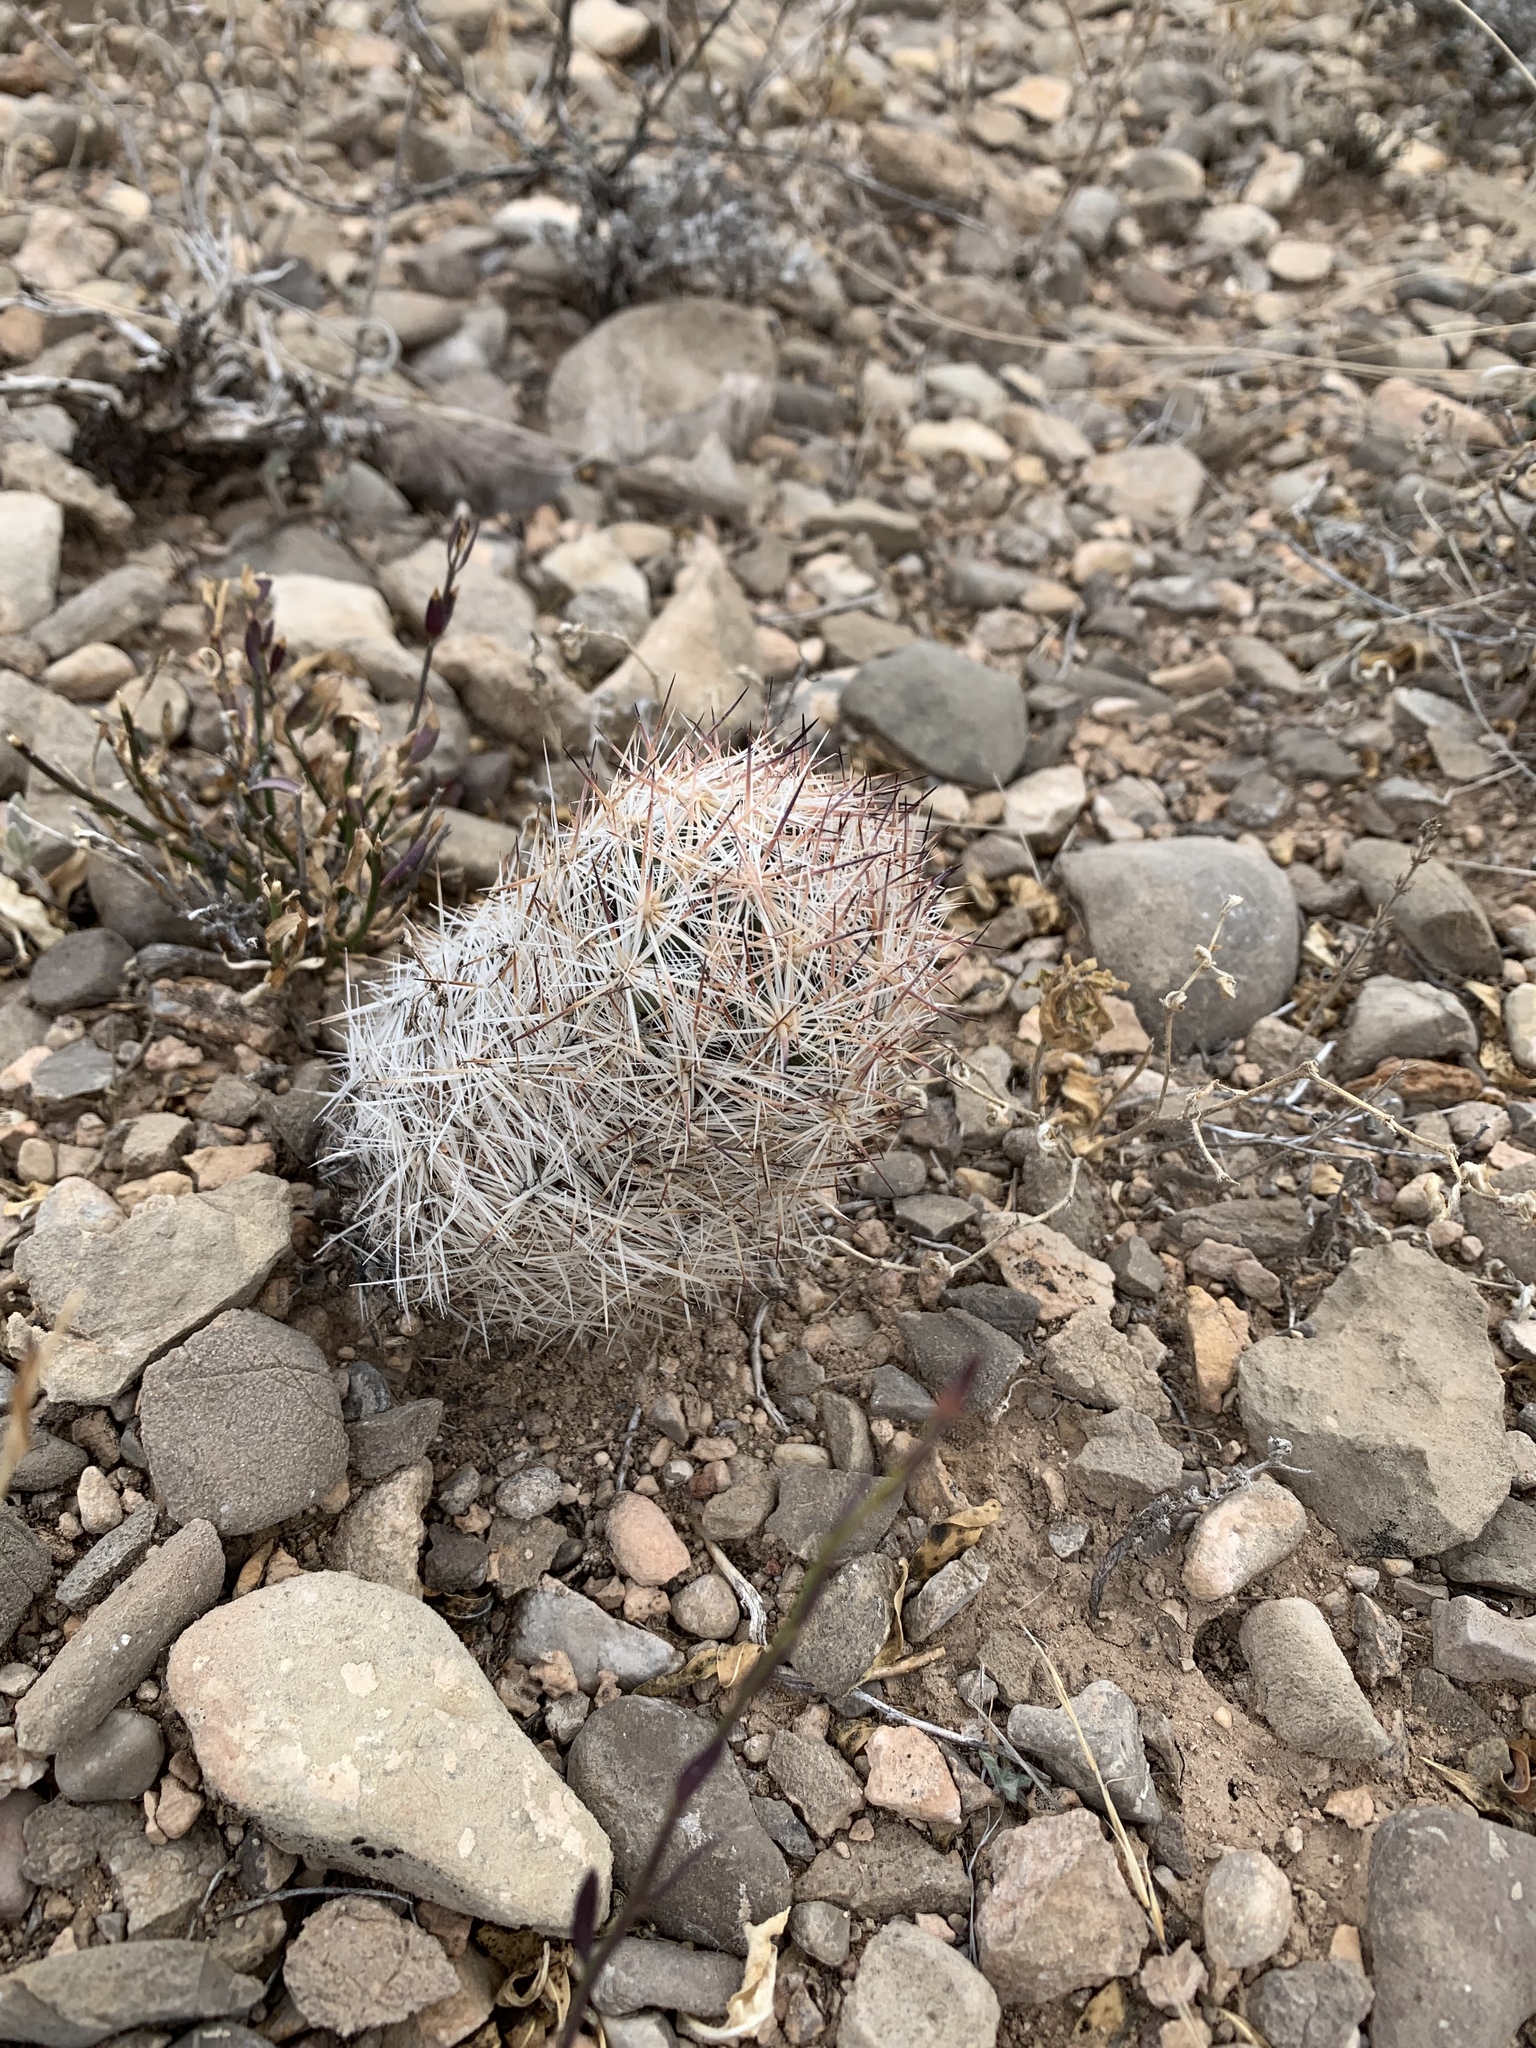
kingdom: Plantae
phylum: Tracheophyta
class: Magnoliopsida
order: Caryophyllales
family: Cactaceae
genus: Pelecyphora
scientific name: Pelecyphora vivipara
